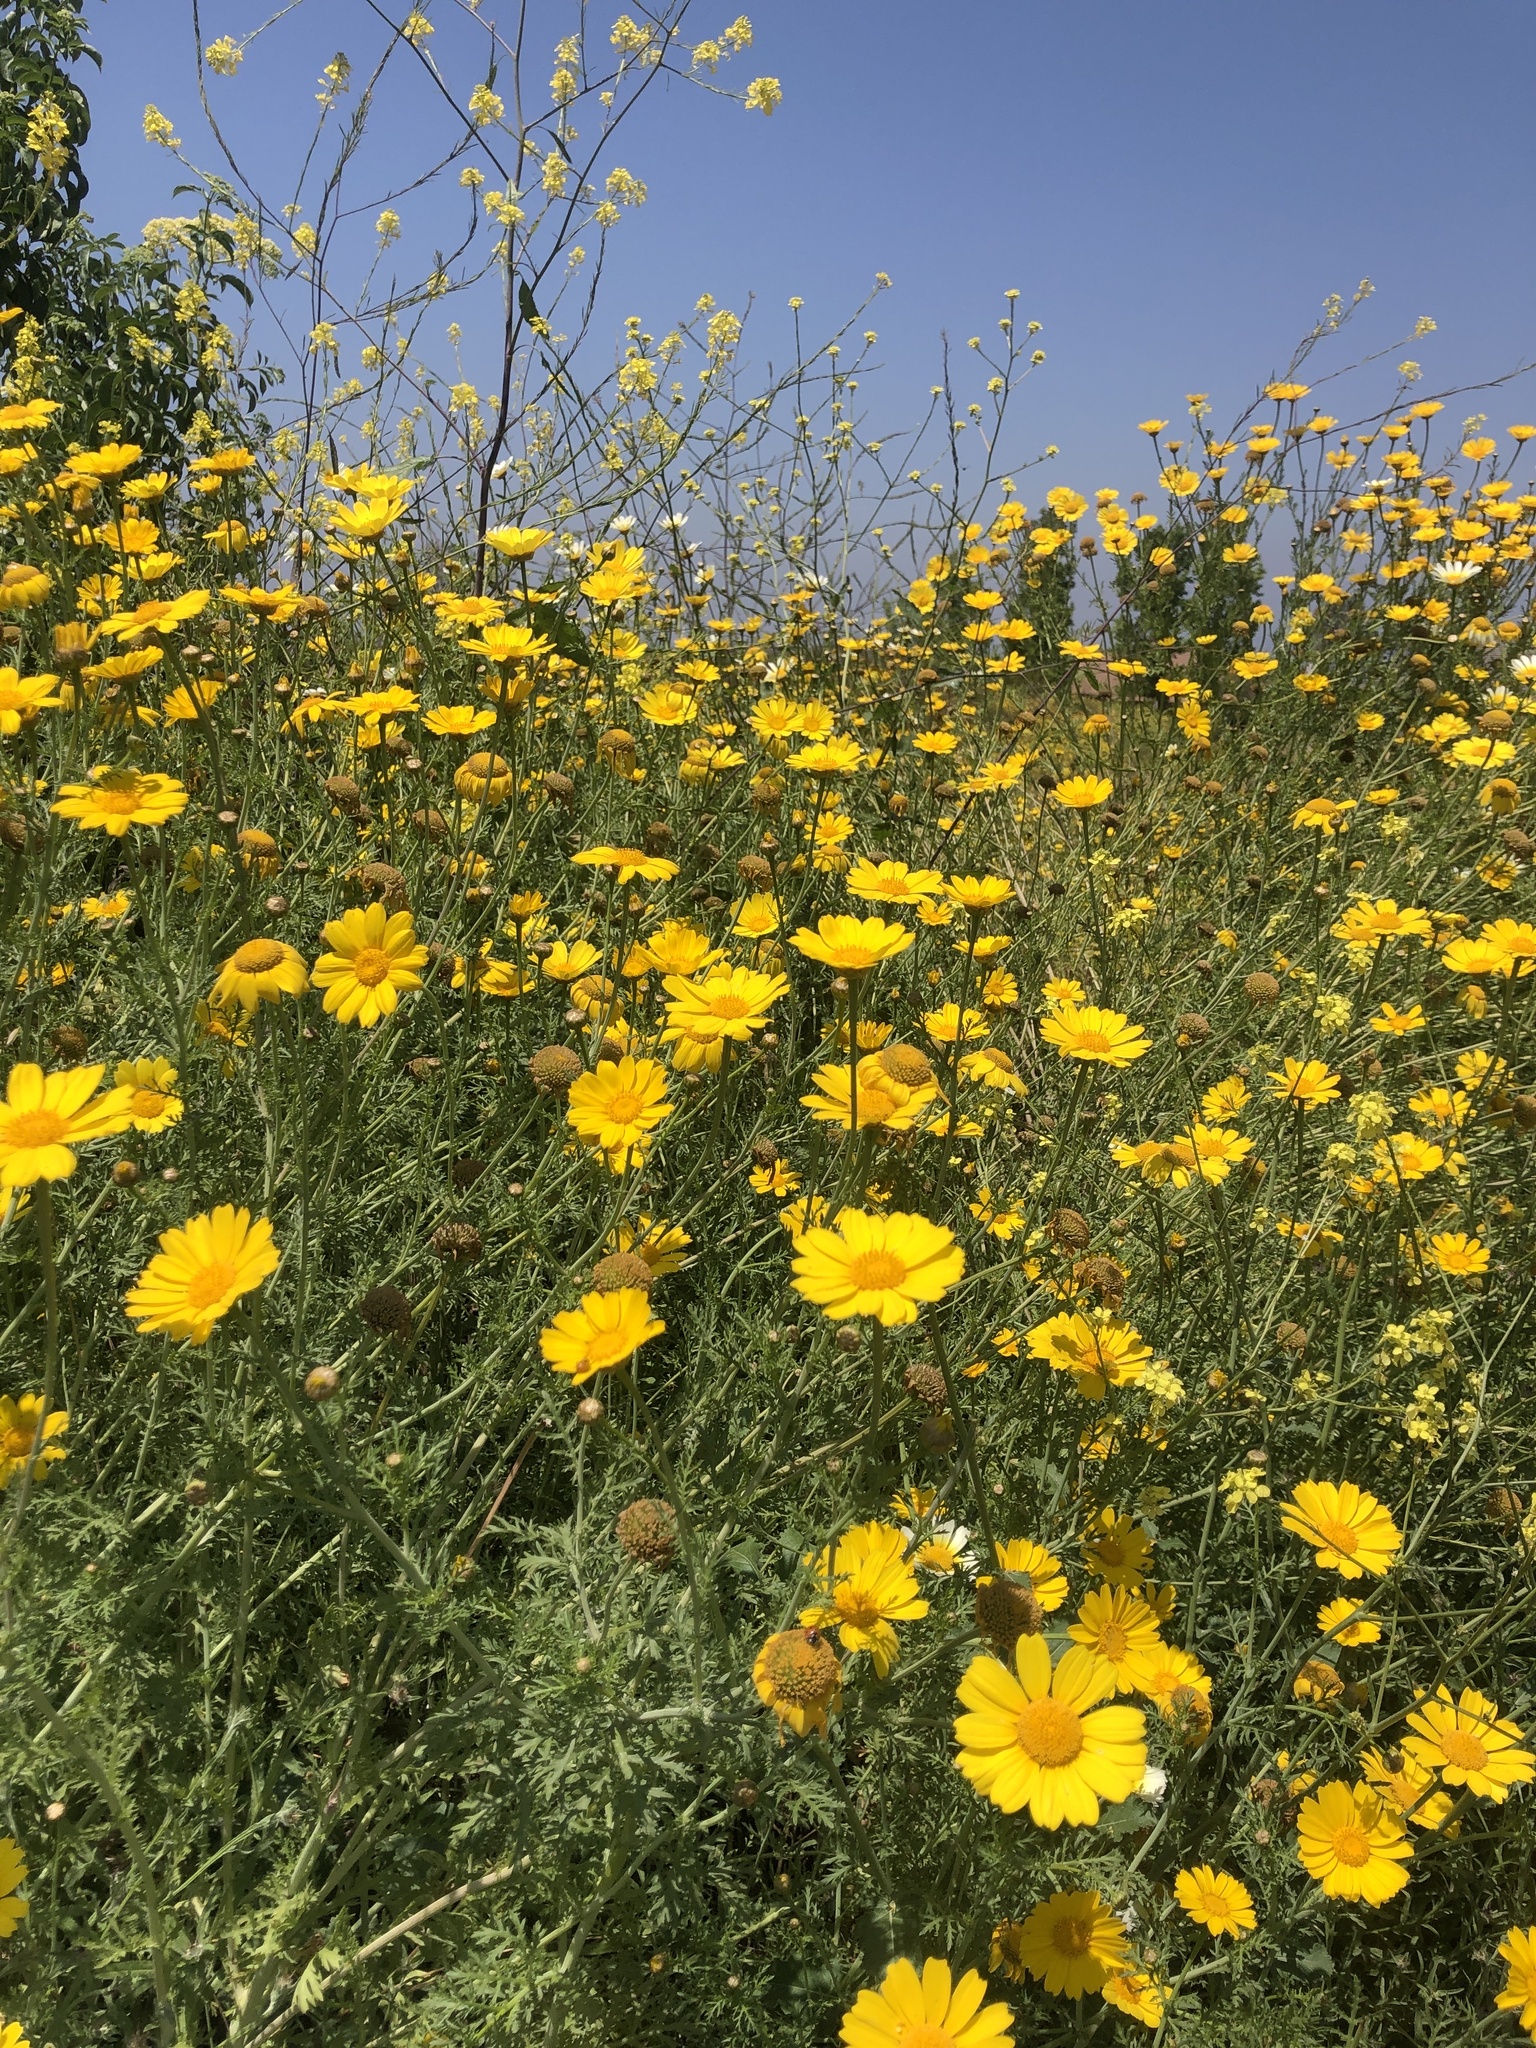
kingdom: Plantae
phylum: Tracheophyta
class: Magnoliopsida
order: Asterales
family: Asteraceae
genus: Glebionis
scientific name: Glebionis coronaria
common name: Crowndaisy
